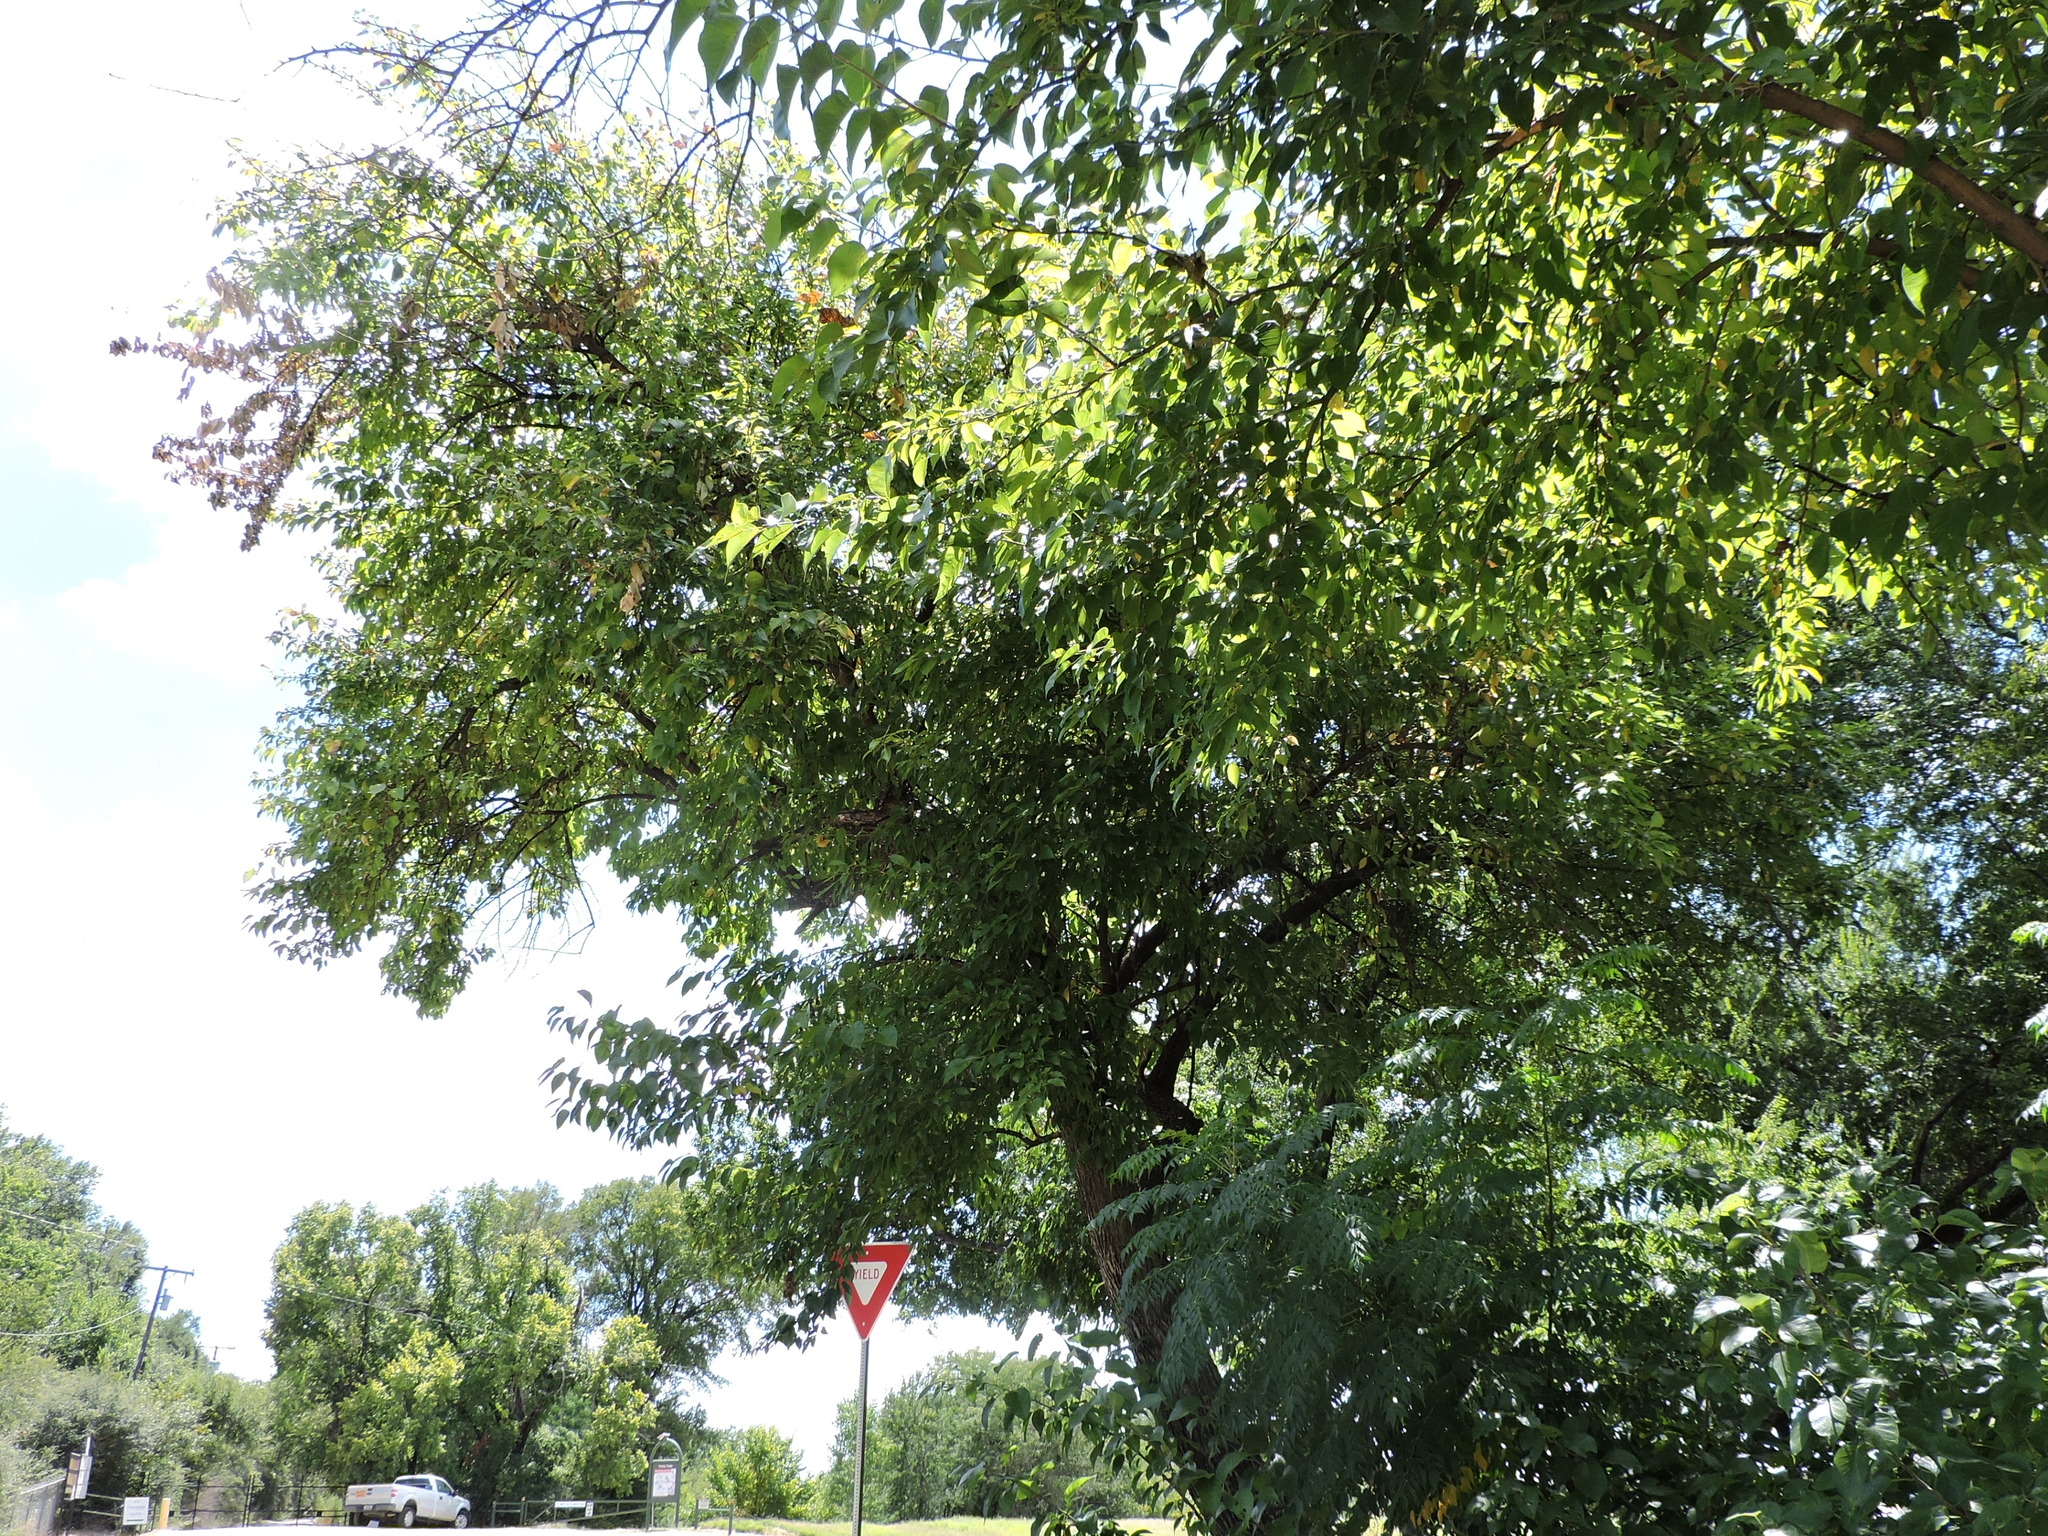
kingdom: Plantae
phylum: Tracheophyta
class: Magnoliopsida
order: Rosales
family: Moraceae
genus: Maclura
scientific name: Maclura pomifera
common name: Osage-orange
